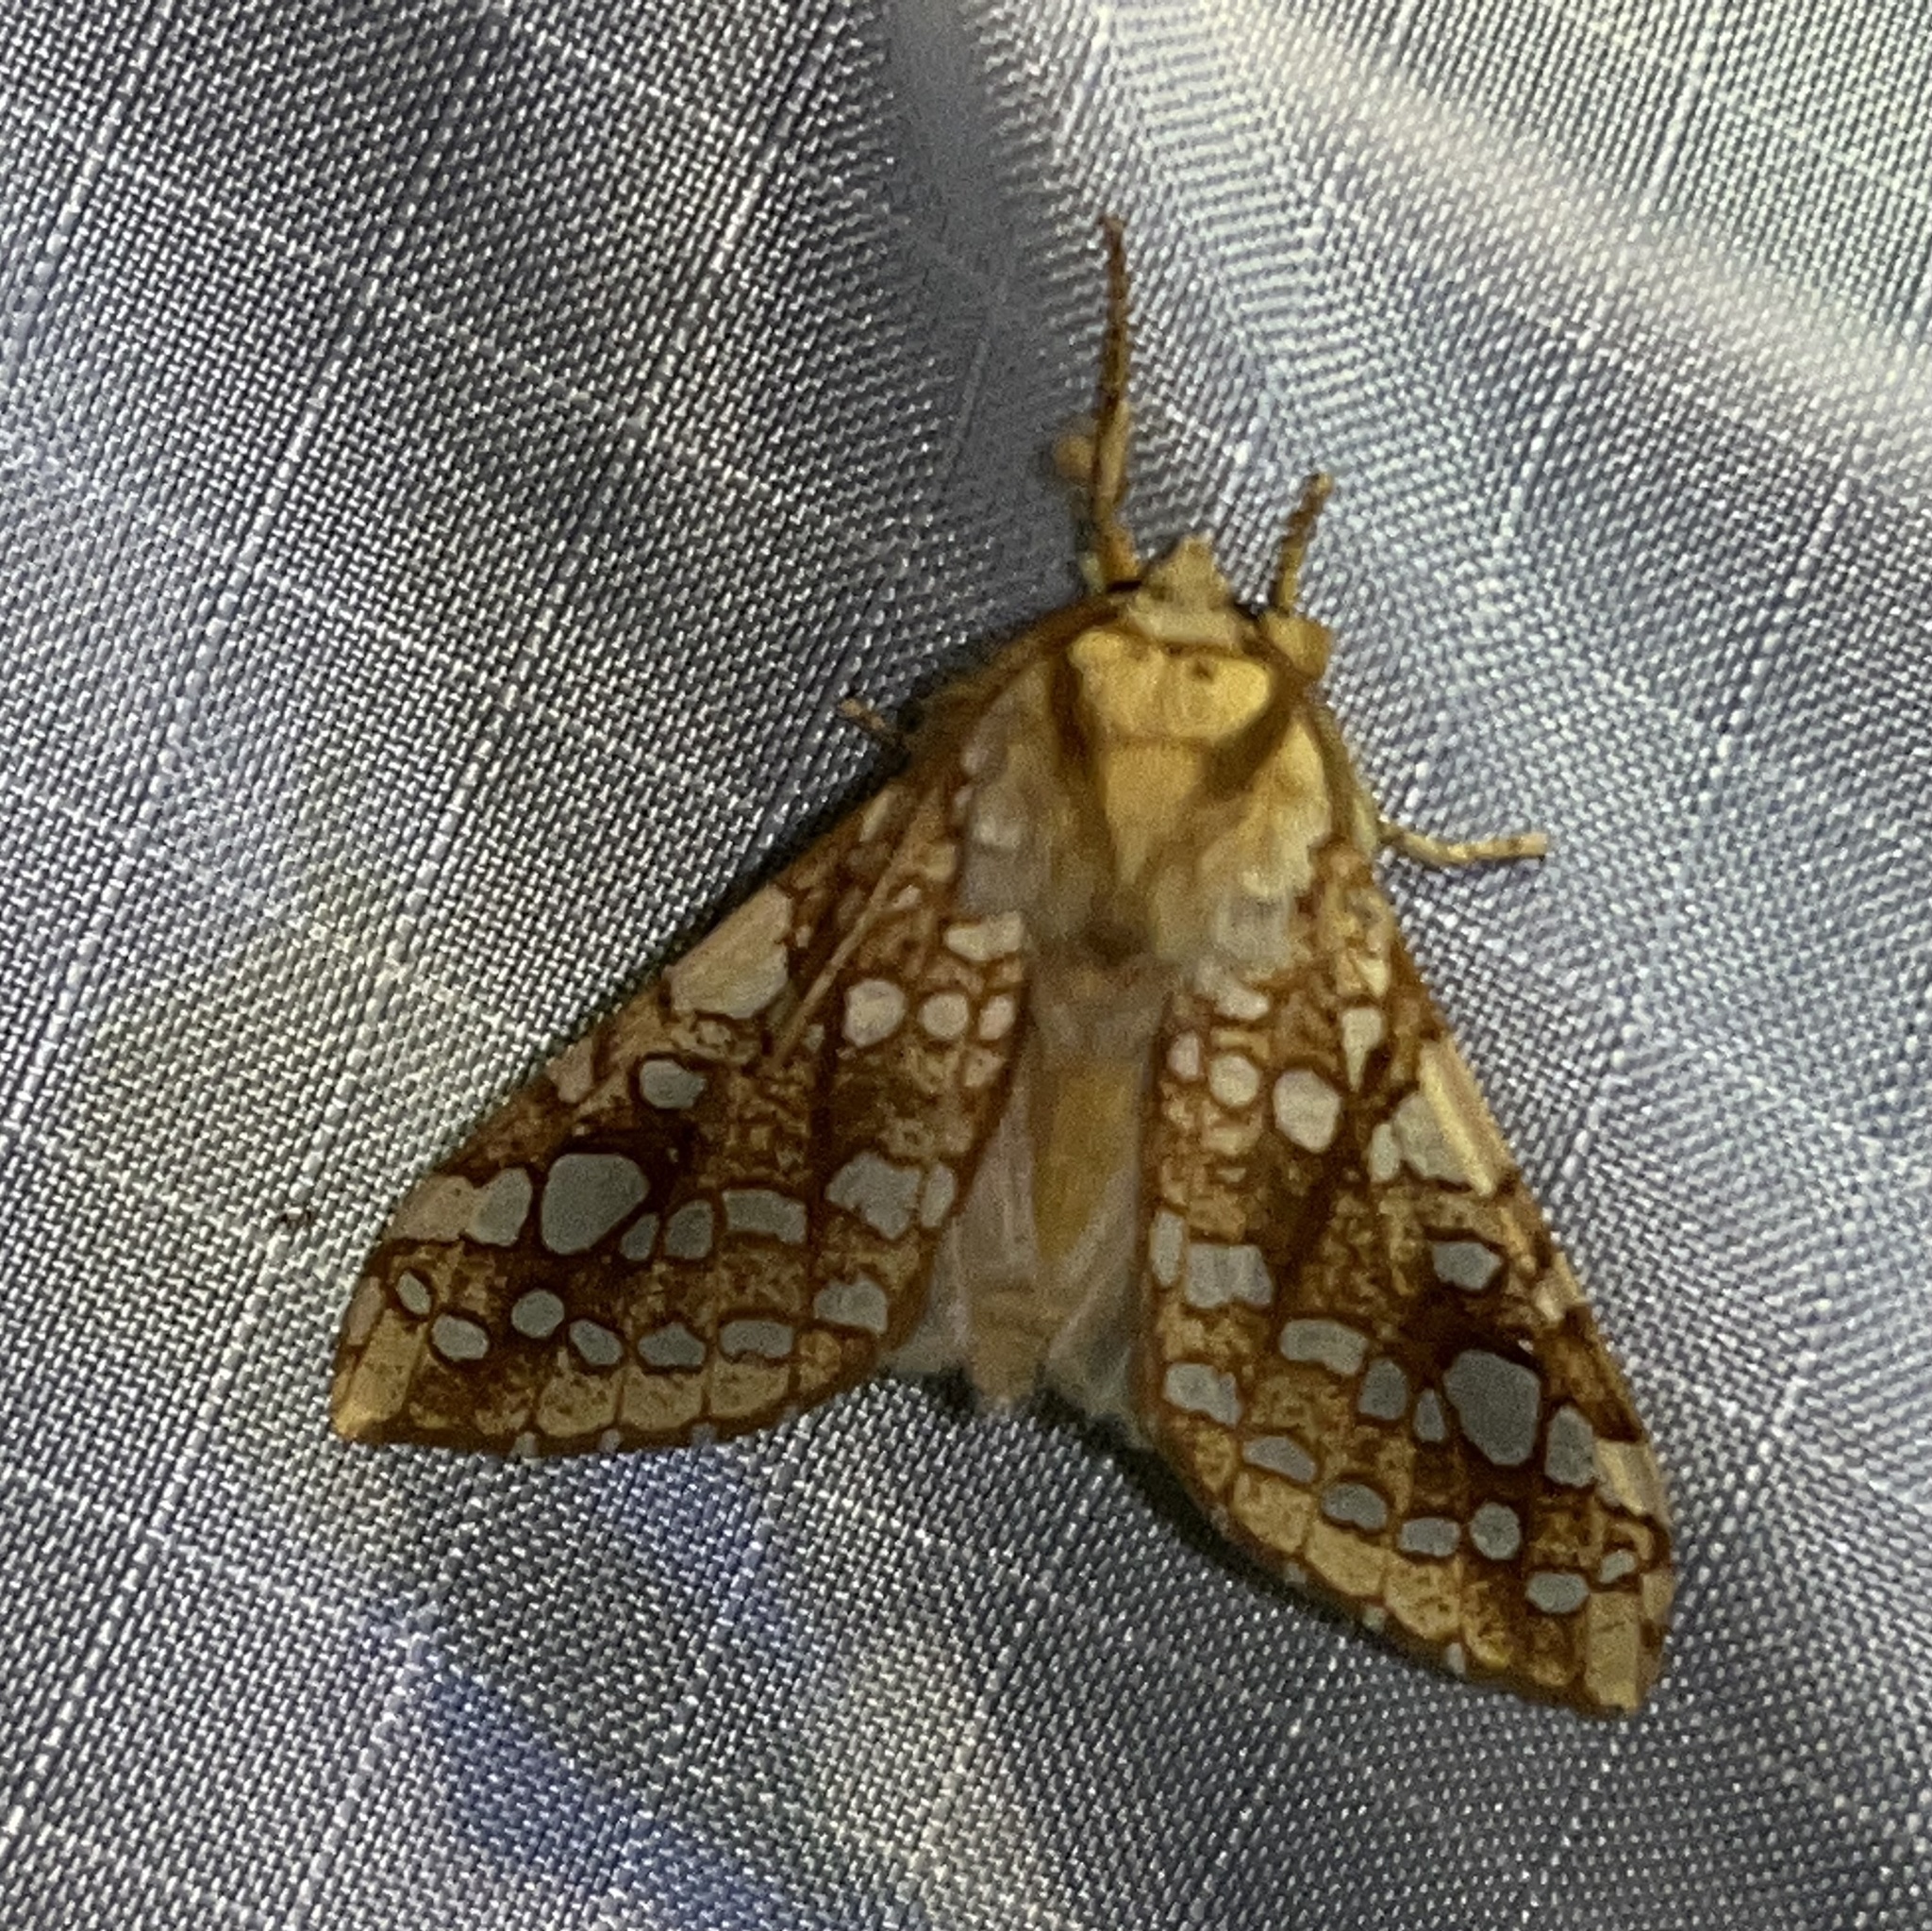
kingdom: Animalia
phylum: Arthropoda
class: Insecta
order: Lepidoptera
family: Erebidae
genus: Lophocampa
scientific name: Lophocampa caryae
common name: Hickory tussock moth
